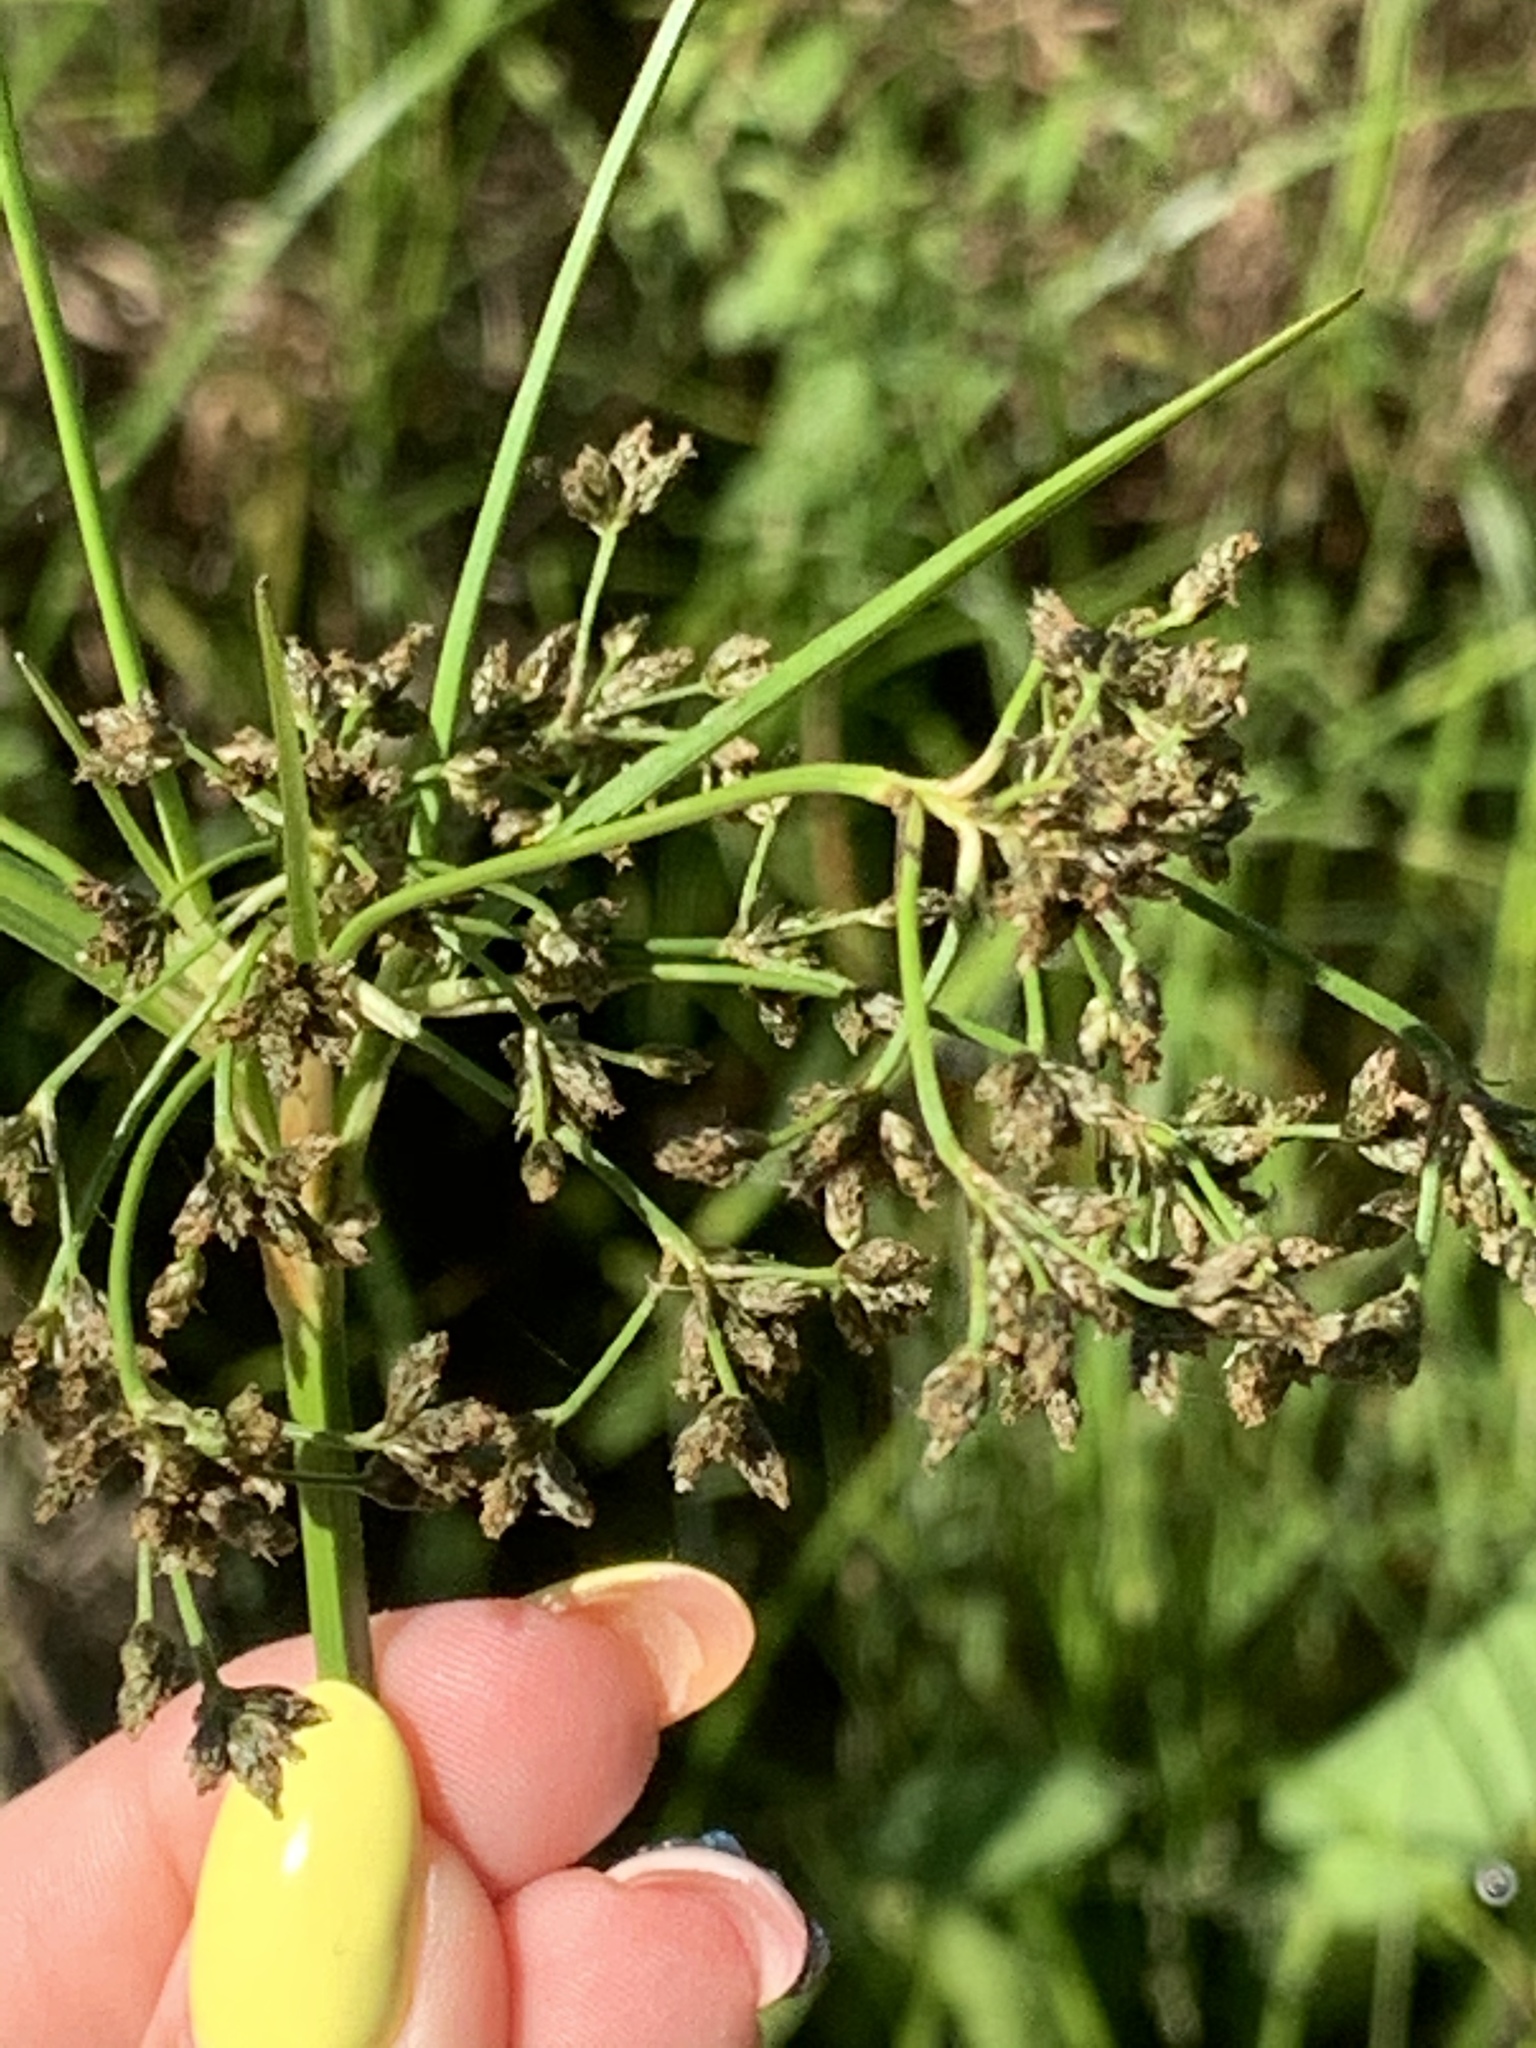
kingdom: Plantae
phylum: Tracheophyta
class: Liliopsida
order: Poales
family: Cyperaceae
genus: Scirpus
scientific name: Scirpus sylvaticus
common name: Wood club-rush
